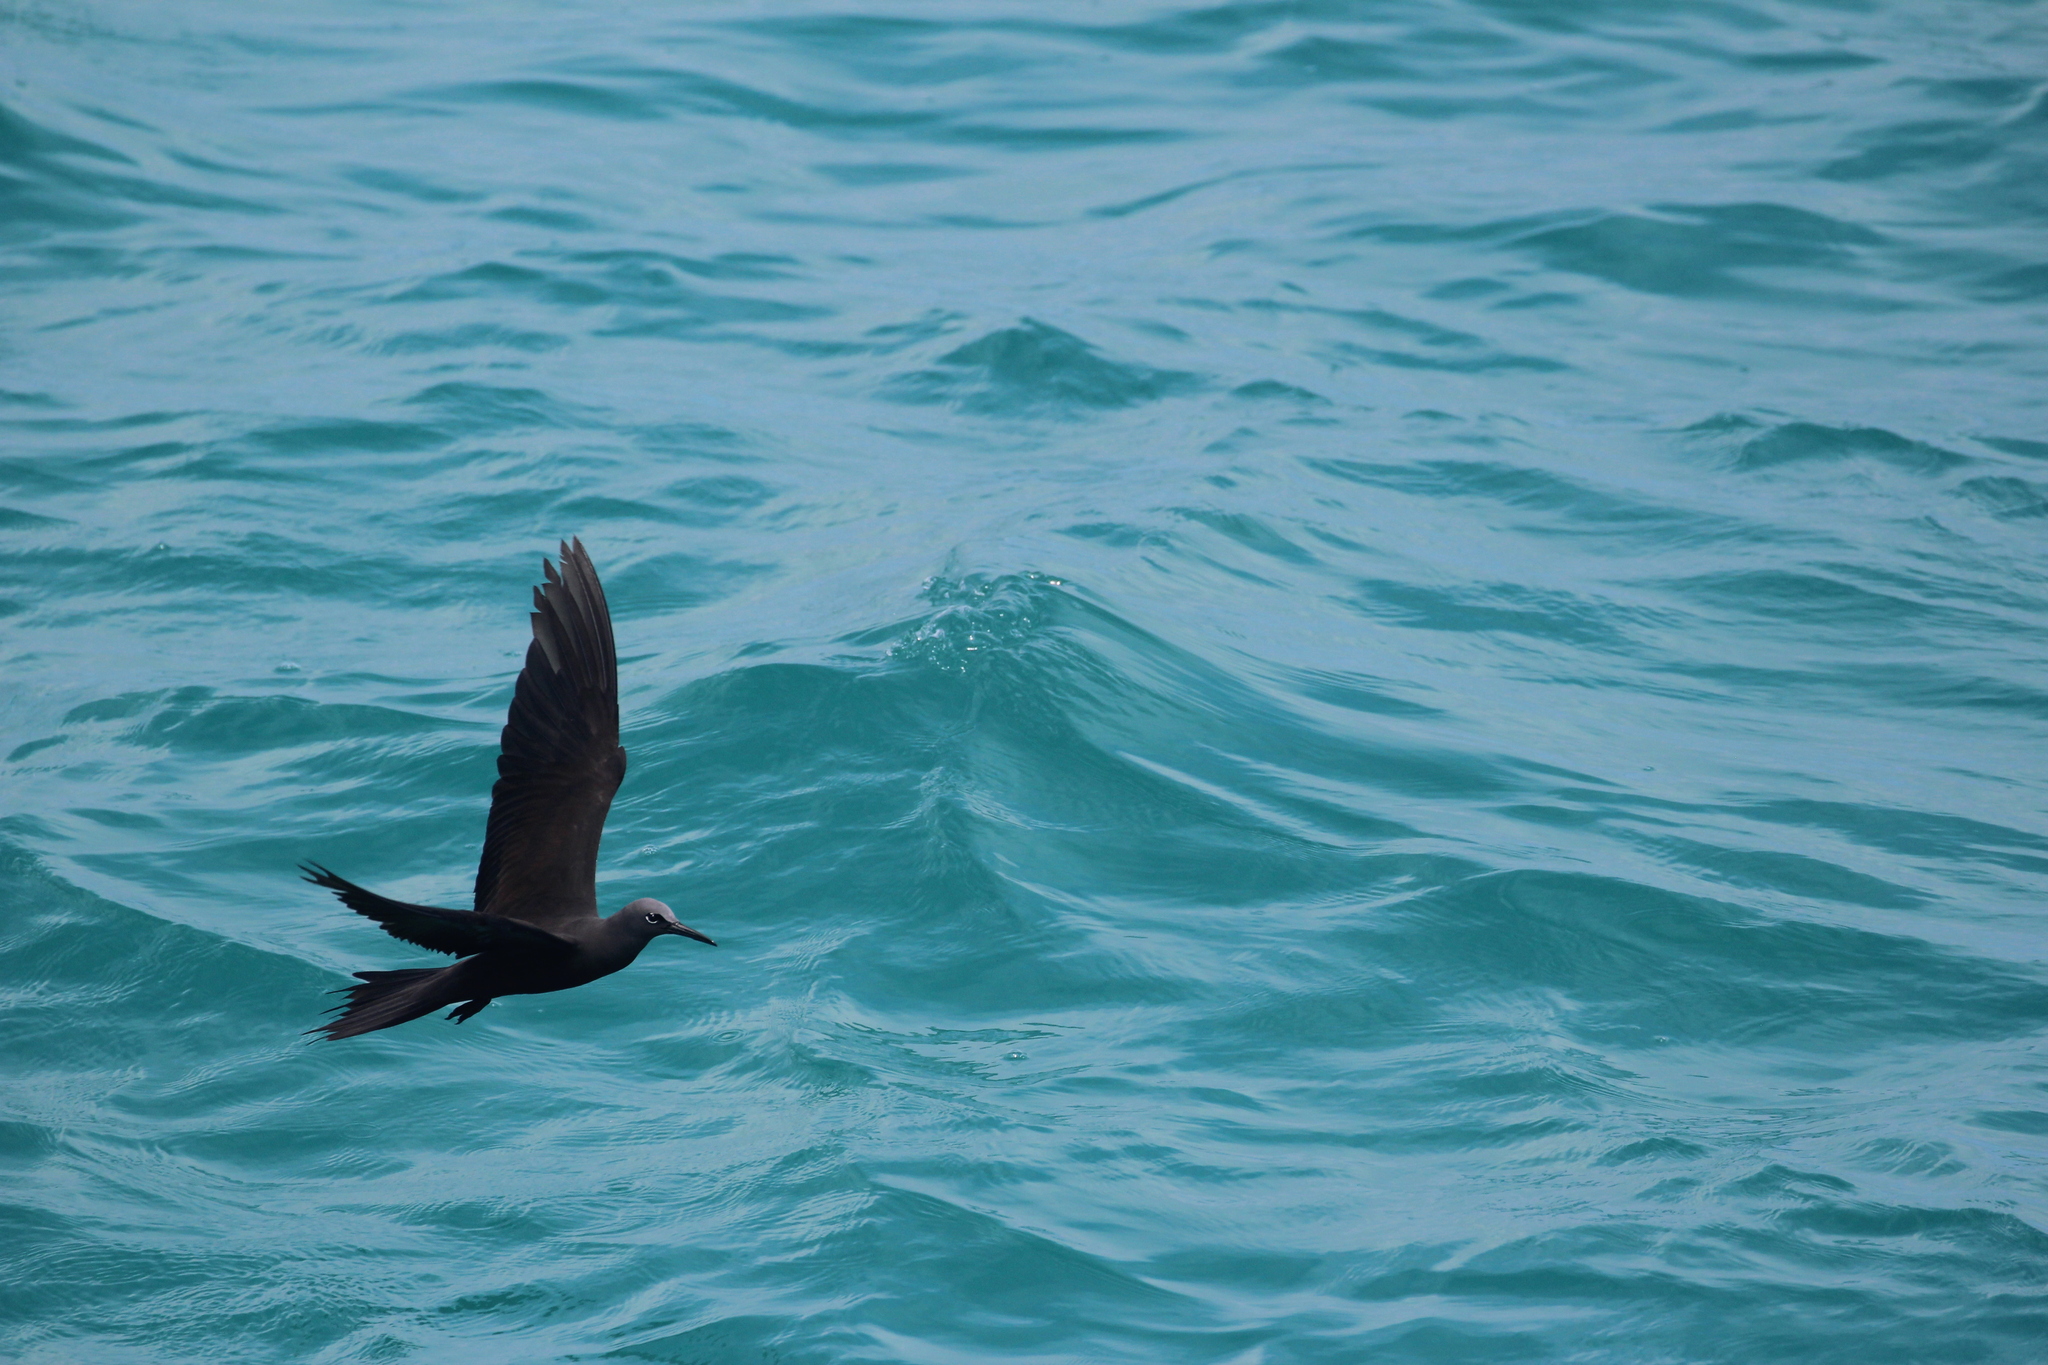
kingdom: Animalia
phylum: Chordata
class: Aves
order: Charadriiformes
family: Laridae
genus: Anous
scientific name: Anous stolidus
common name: Brown noddy
